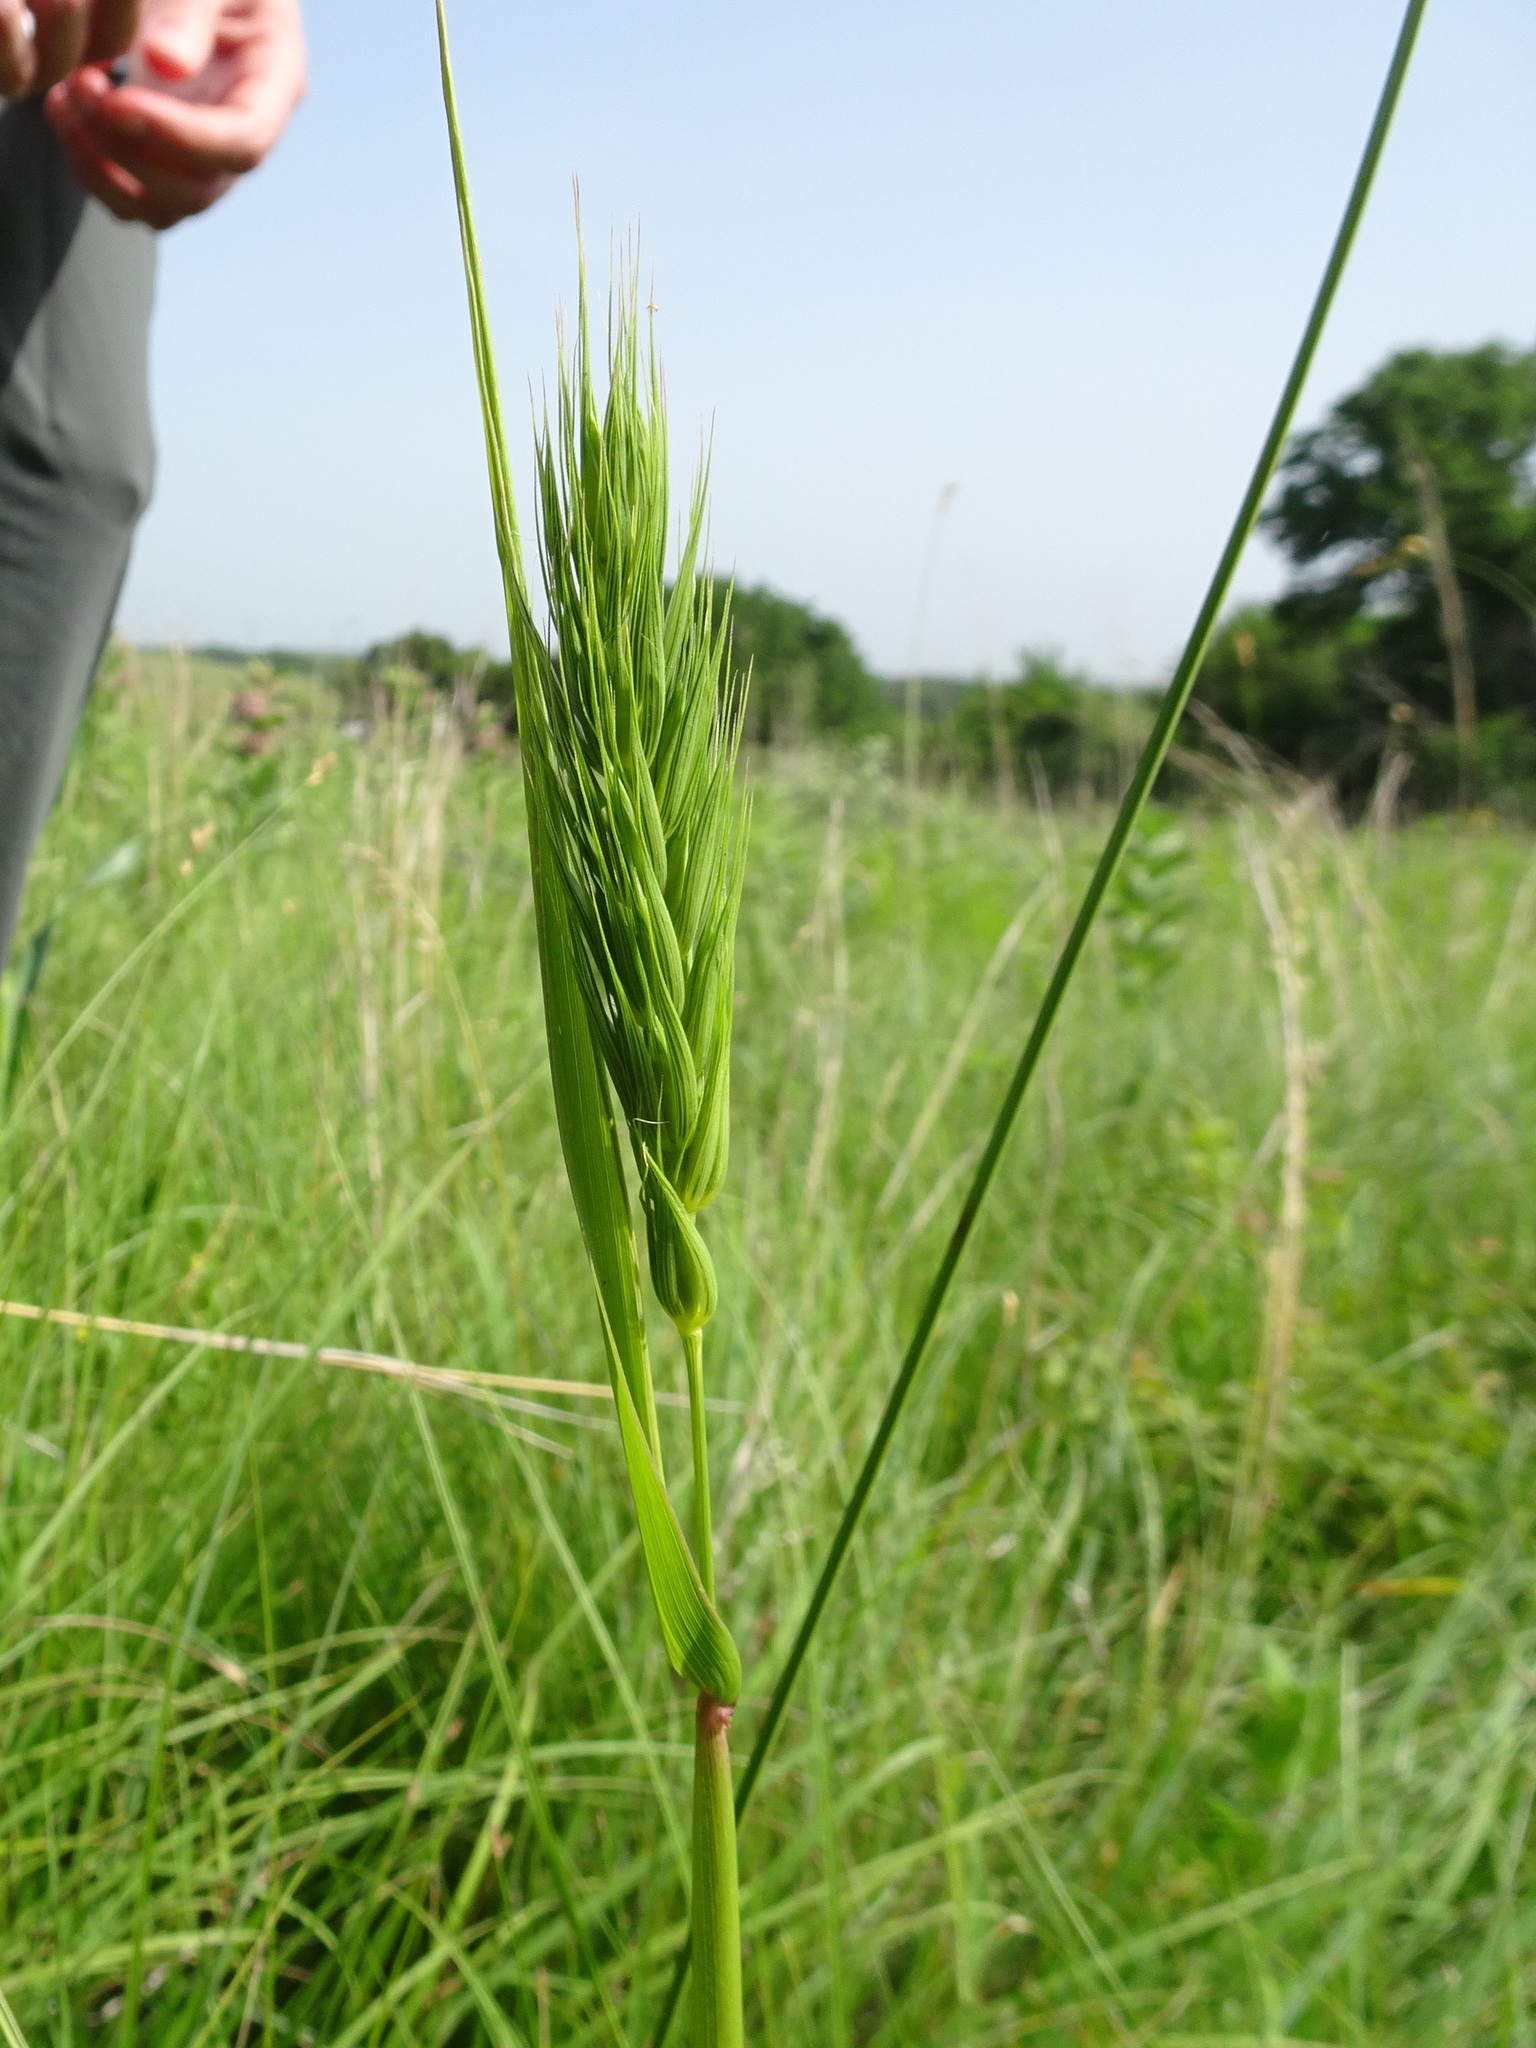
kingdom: Plantae
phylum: Tracheophyta
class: Liliopsida
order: Poales
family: Poaceae
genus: Elymus
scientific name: Elymus virginicus
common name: Common eastern wildrye
